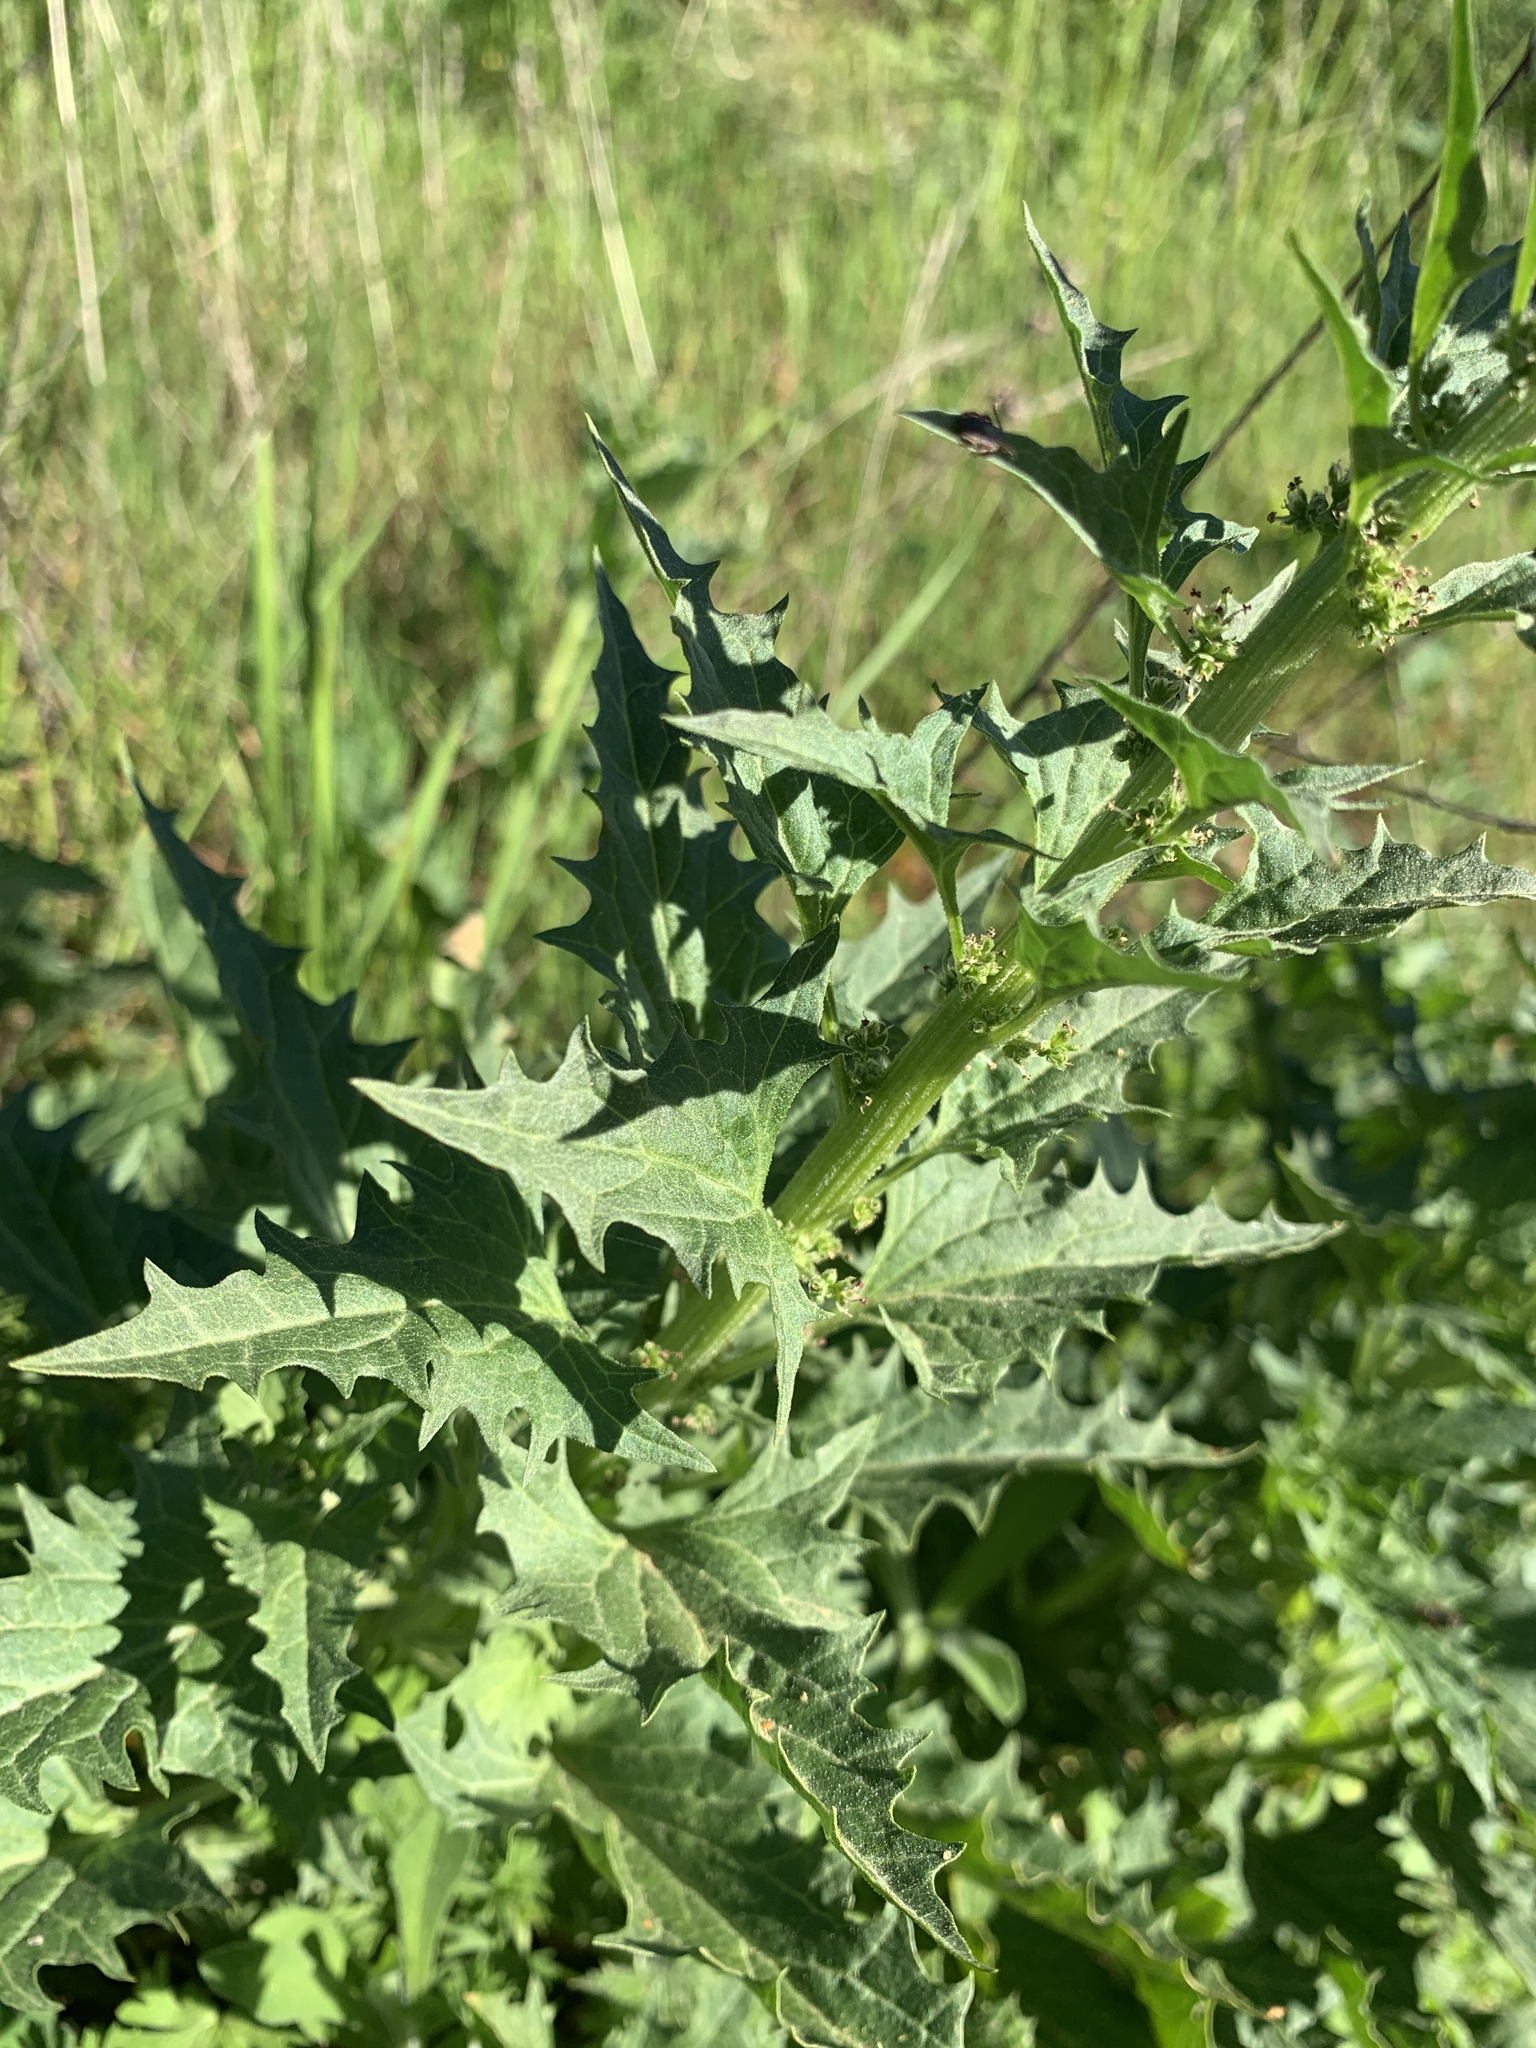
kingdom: Plantae
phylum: Tracheophyta
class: Magnoliopsida
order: Caryophyllales
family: Amaranthaceae
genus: Blitum
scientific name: Blitum californicum
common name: California goosefoot
